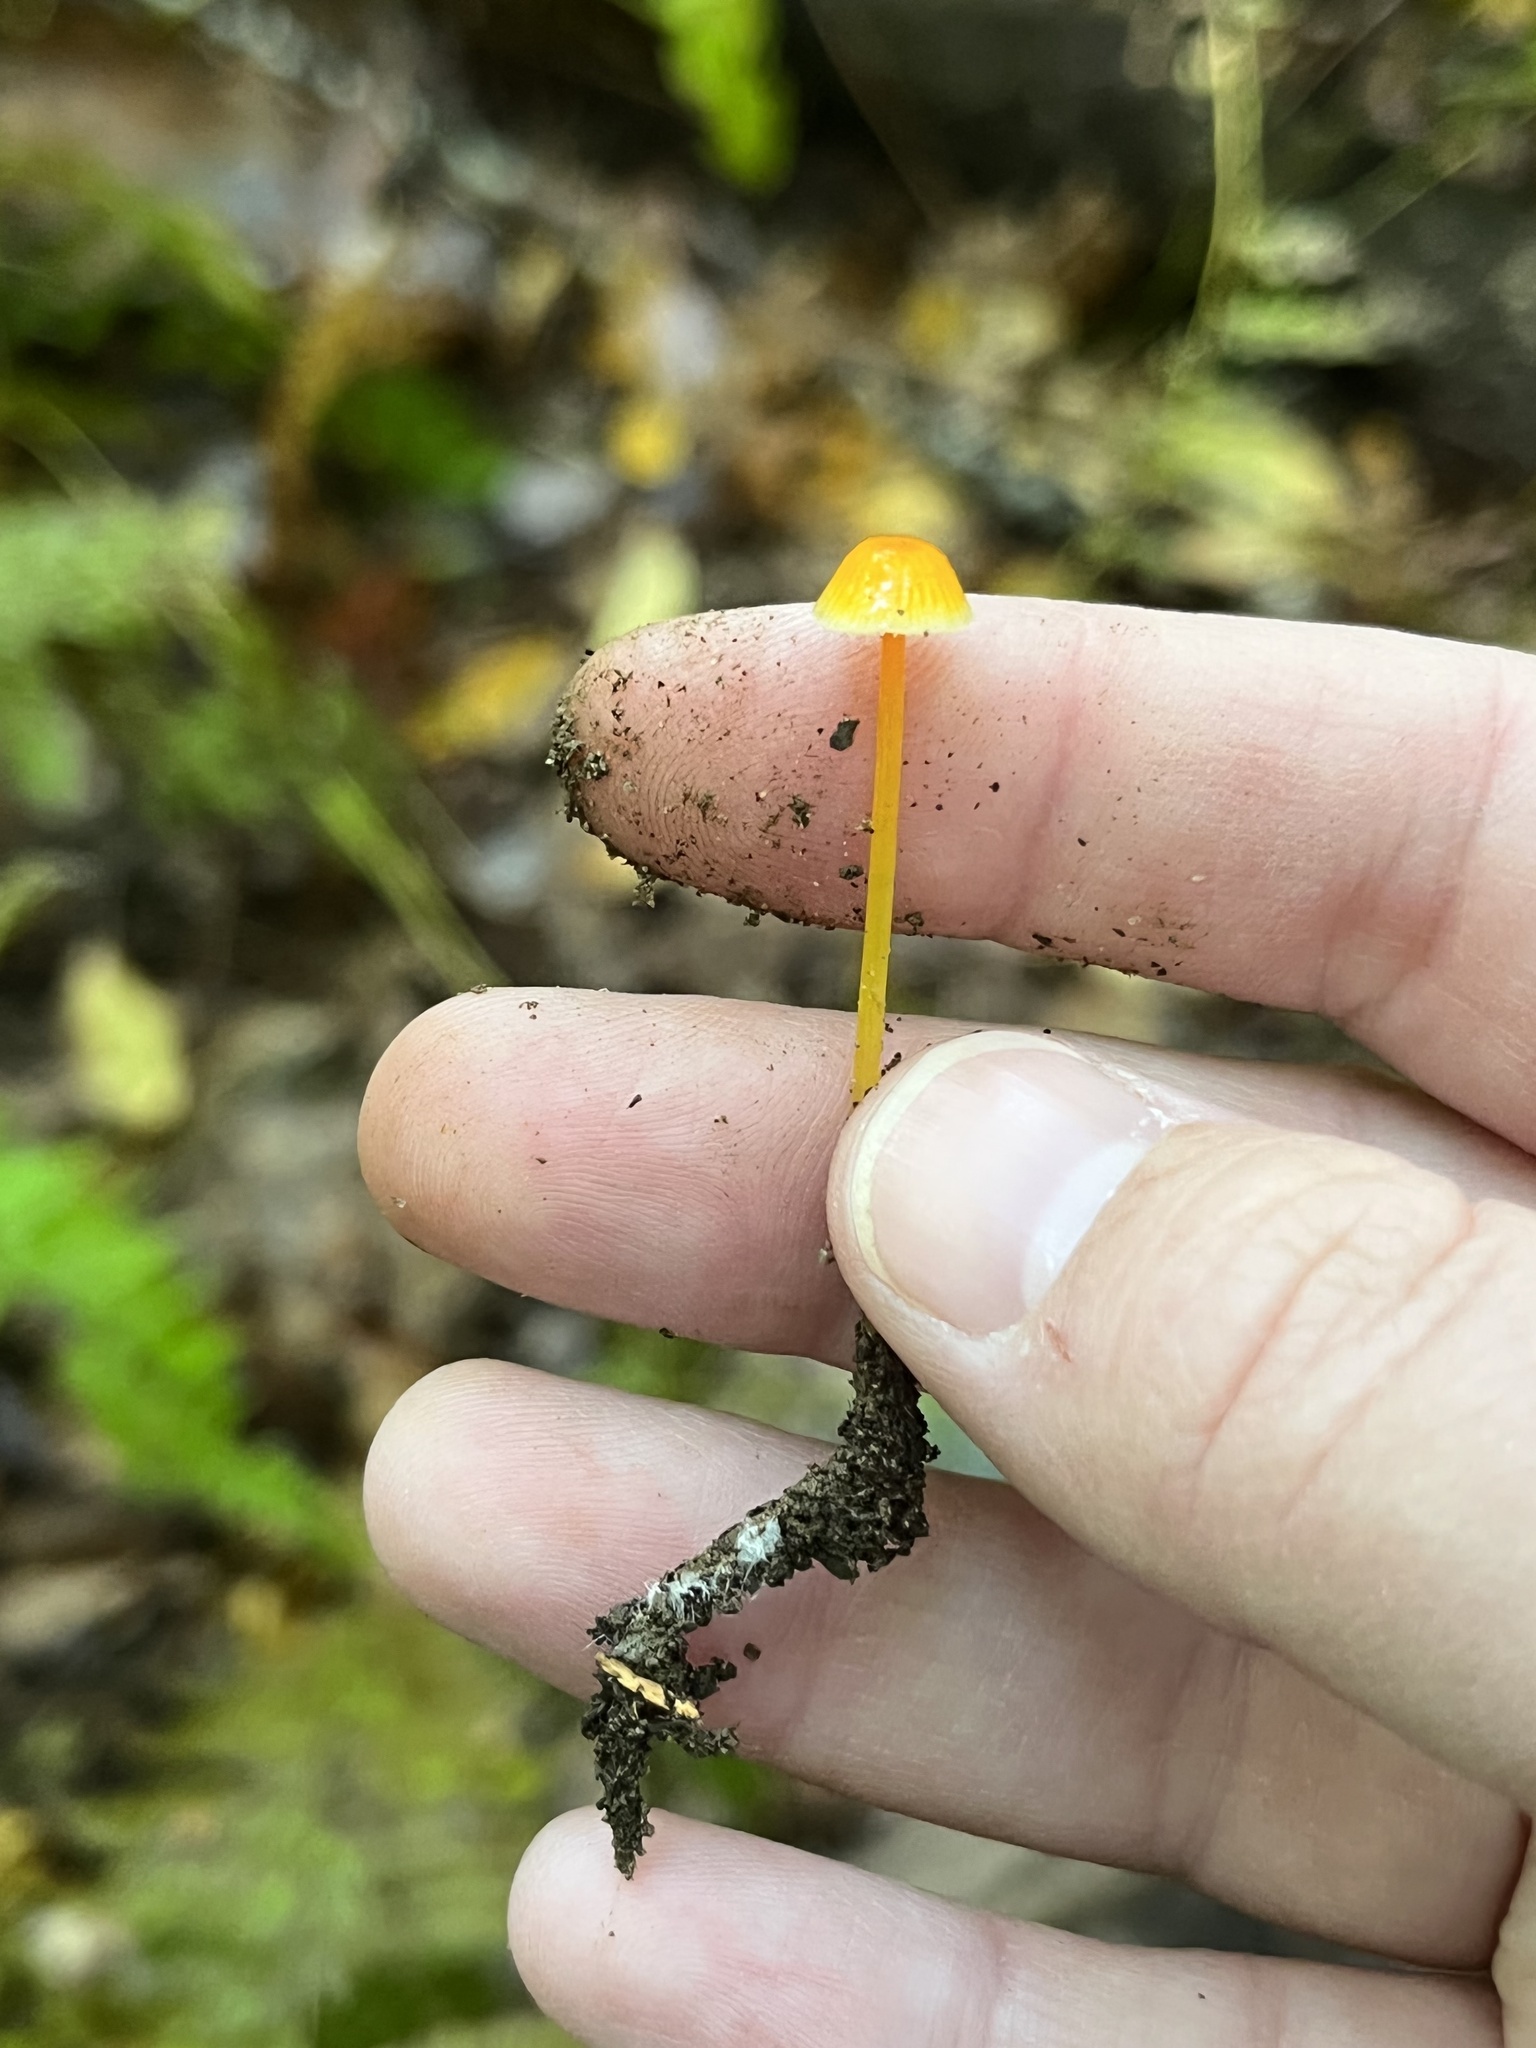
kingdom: Fungi
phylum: Basidiomycota
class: Agaricomycetes
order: Agaricales
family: Mycenaceae
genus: Mycena
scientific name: Mycena crocea
